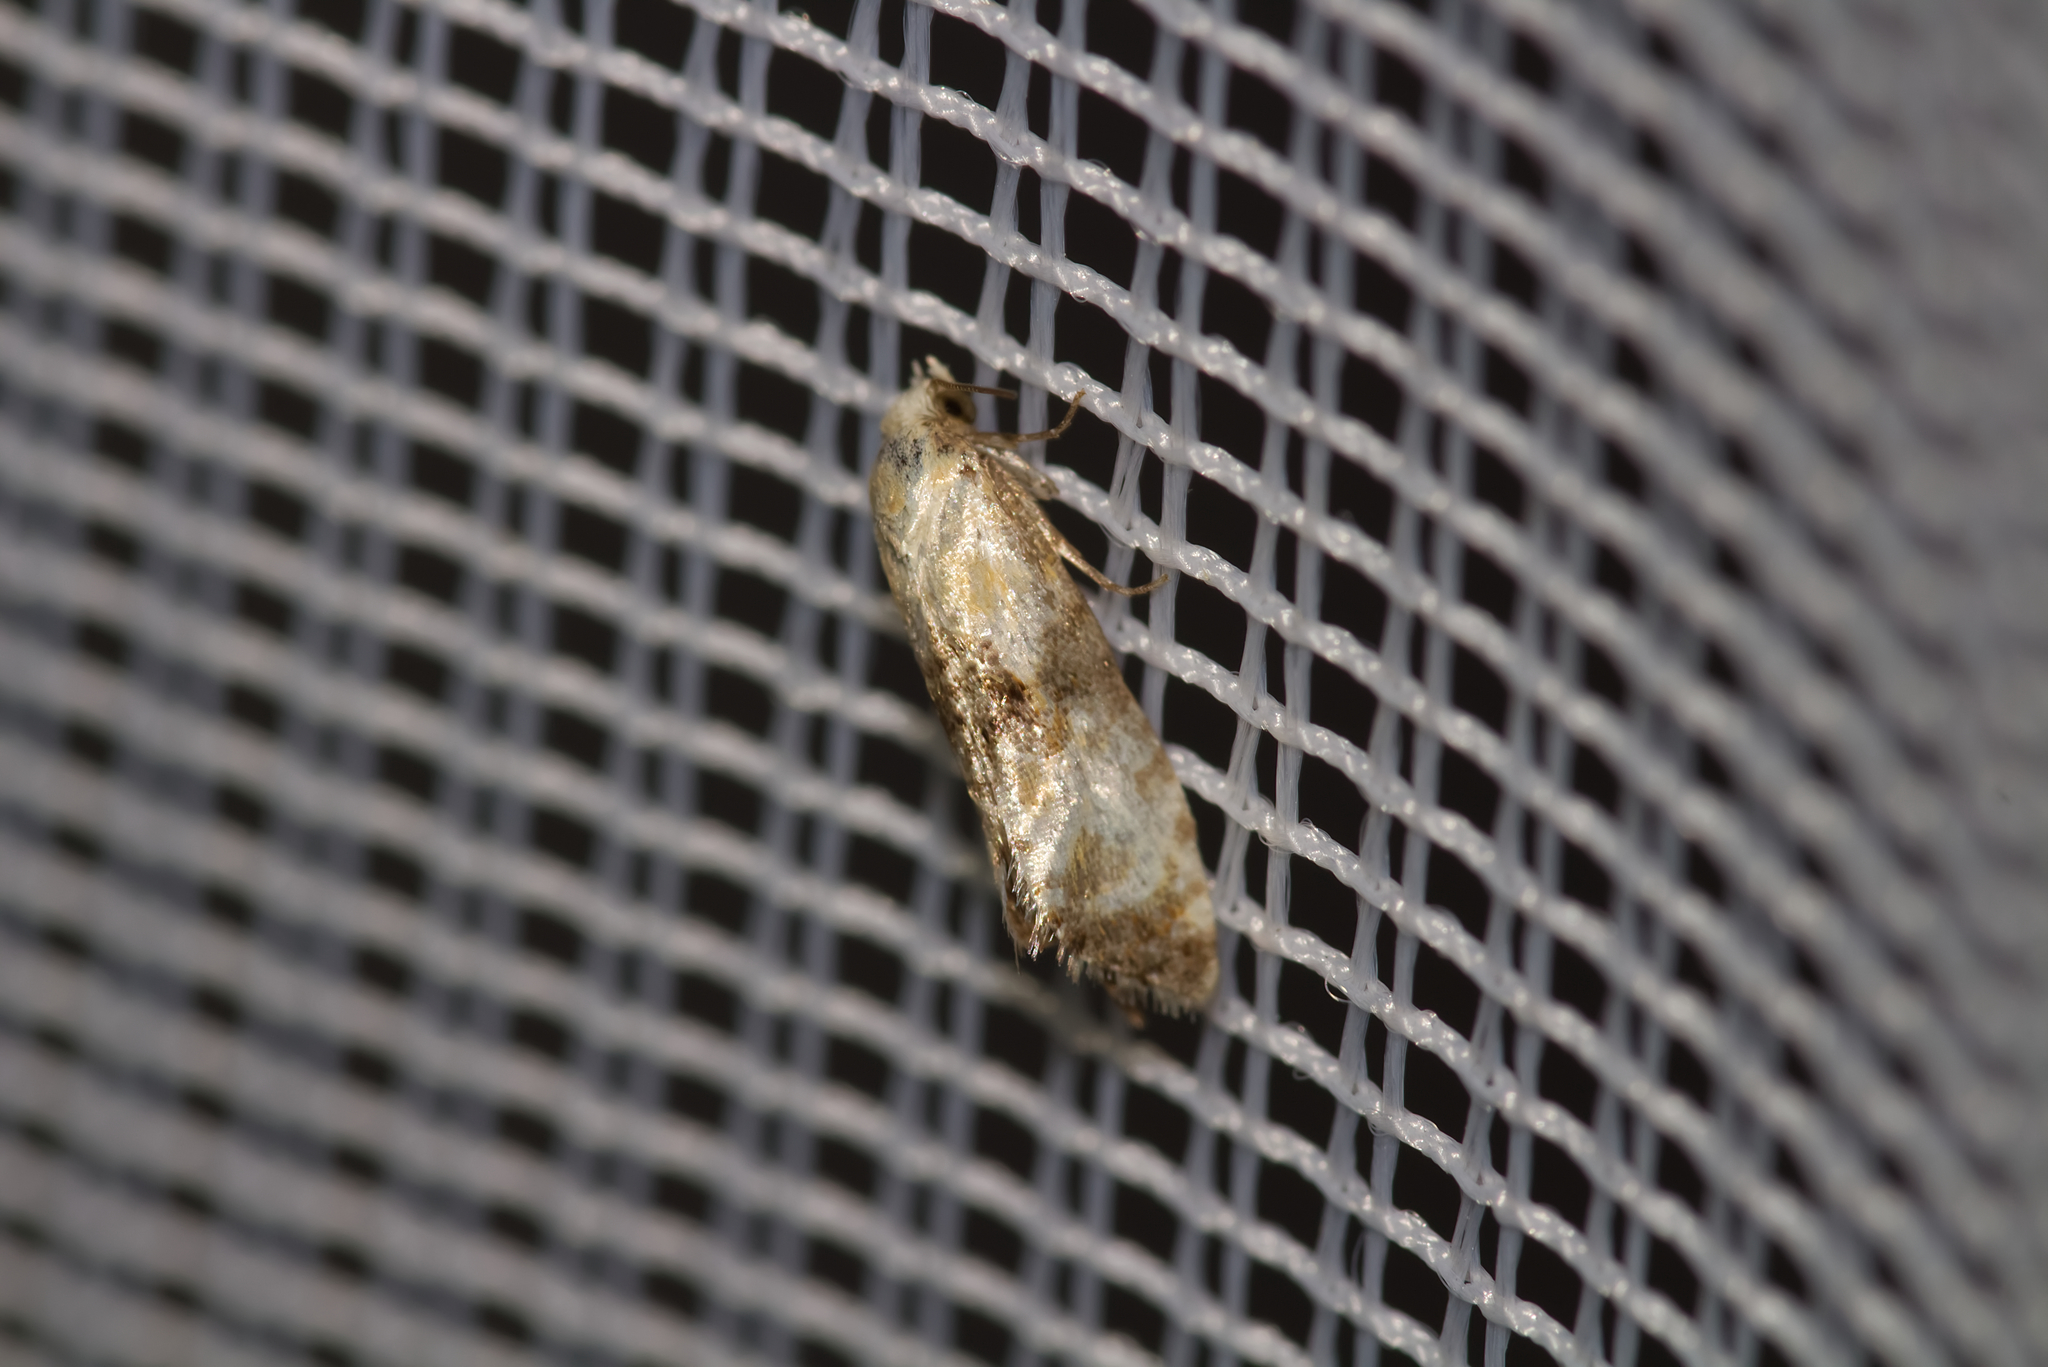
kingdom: Animalia
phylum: Arthropoda
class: Insecta
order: Lepidoptera
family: Tortricidae
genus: Eupoecilia
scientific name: Eupoecilia angustana
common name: Marbled conch
